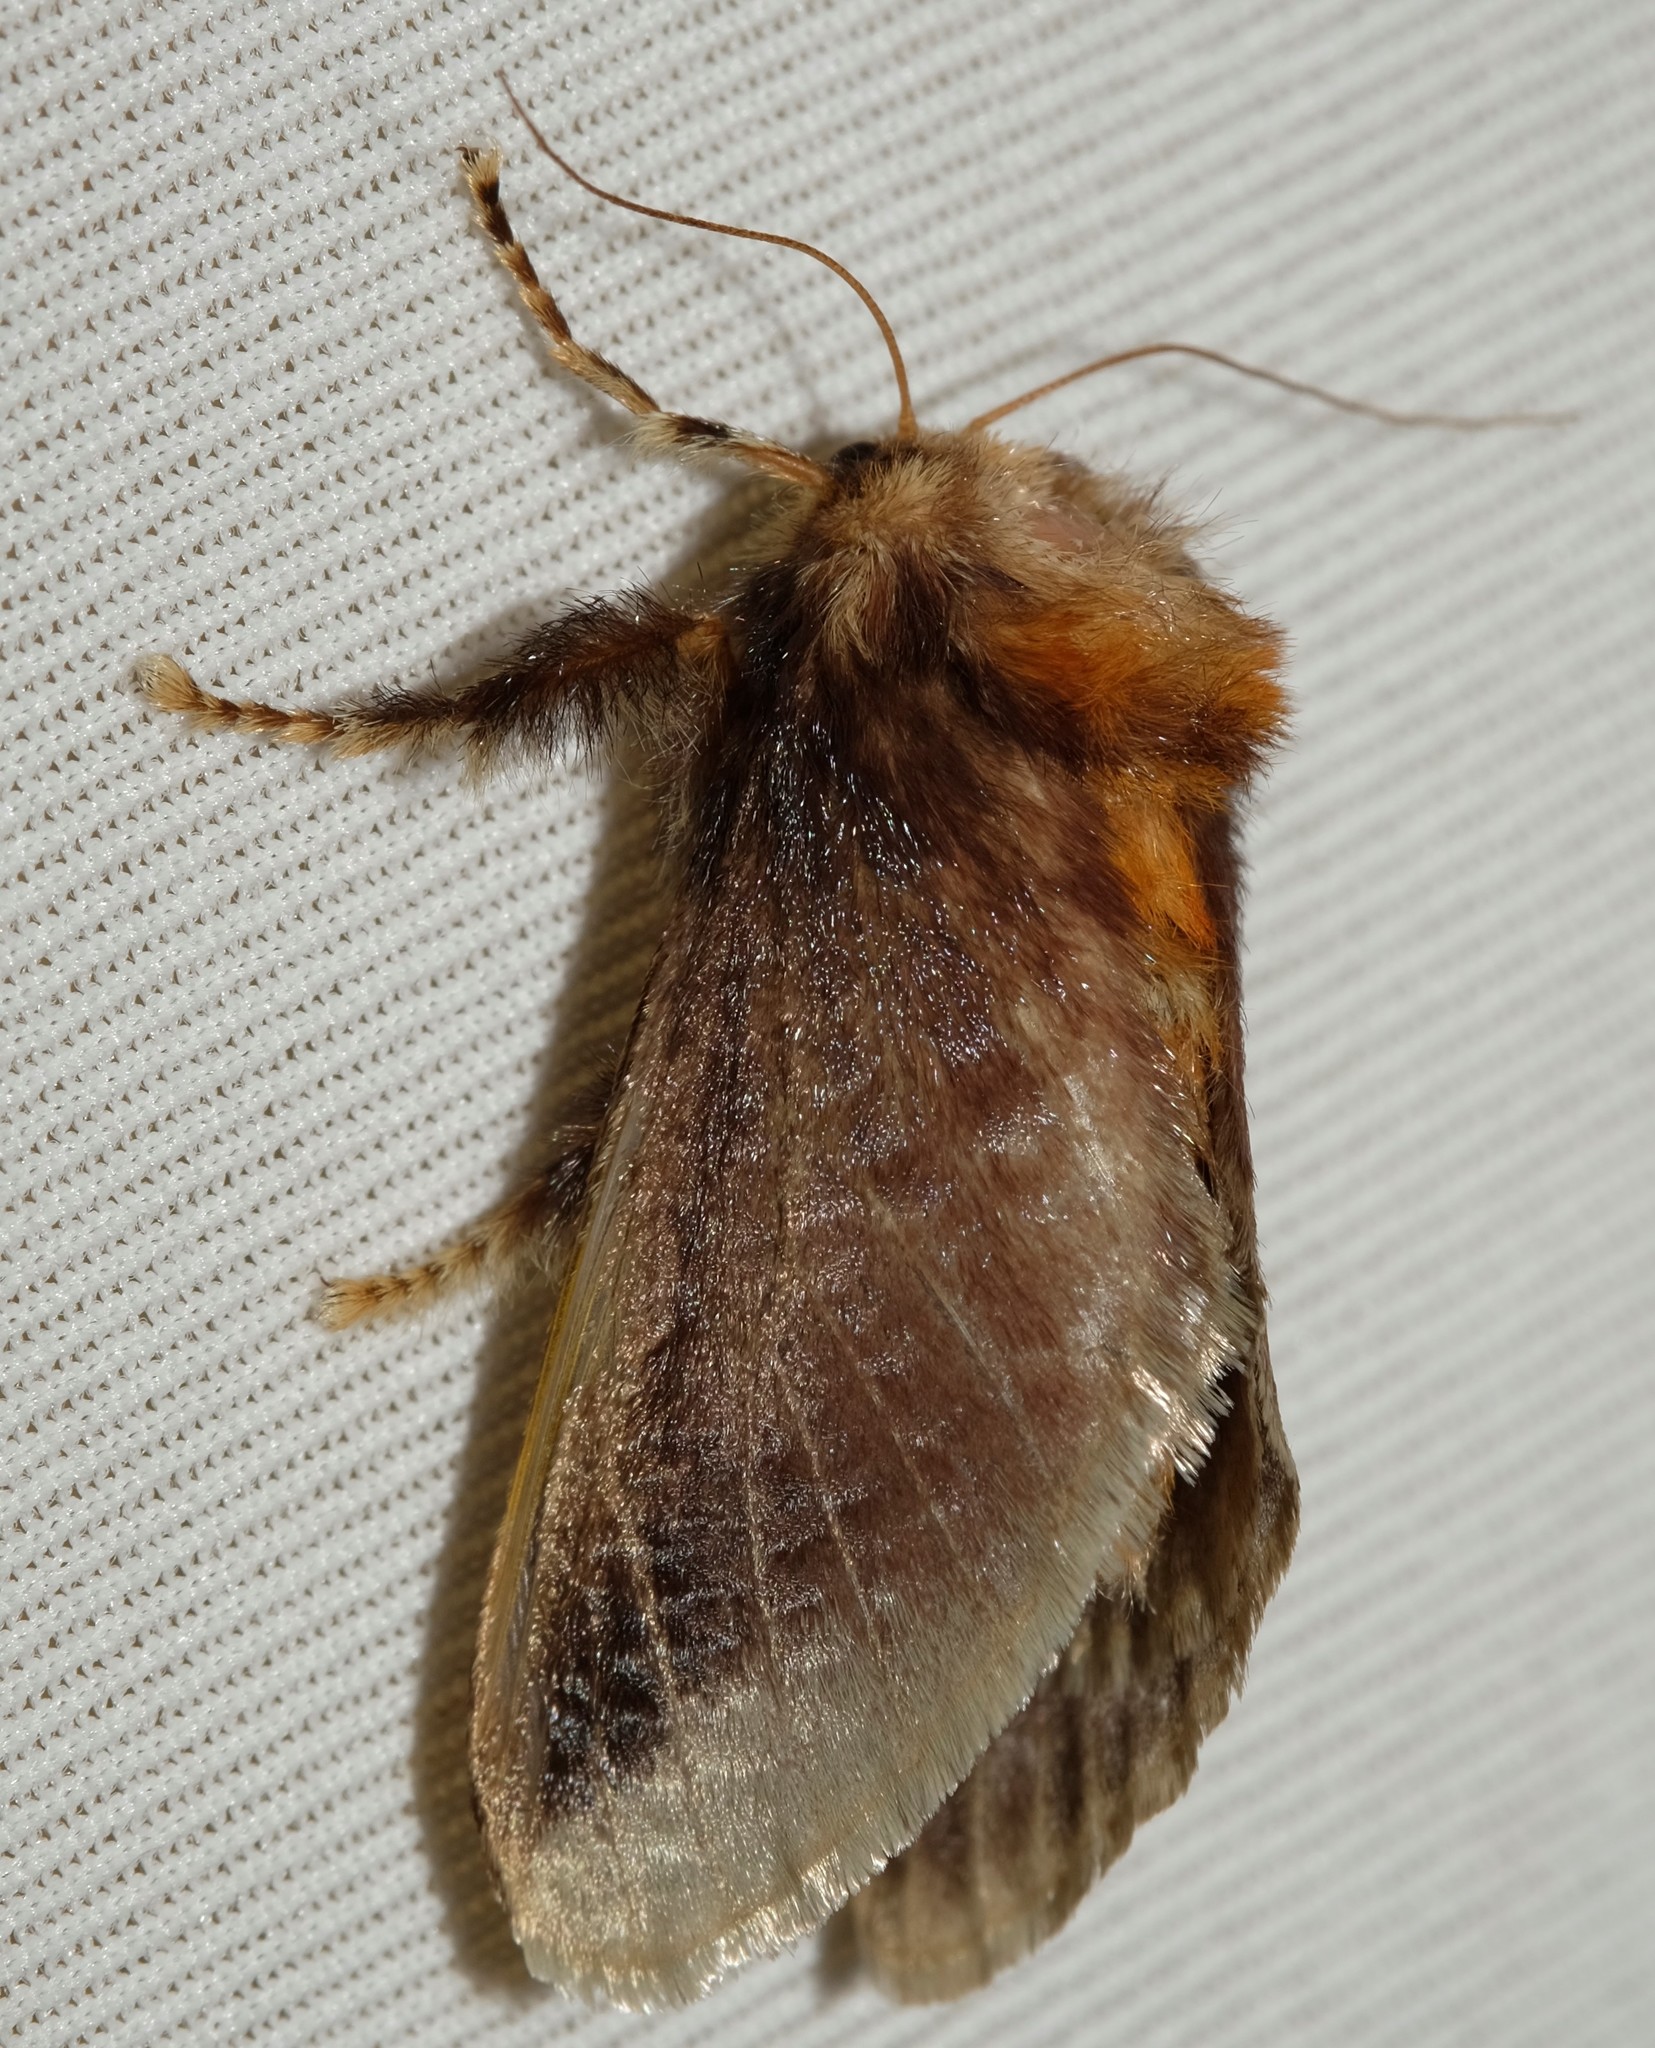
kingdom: Animalia
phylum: Arthropoda
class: Insecta
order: Lepidoptera
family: Limacodidae
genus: Doratifera
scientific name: Doratifera oxleyi
